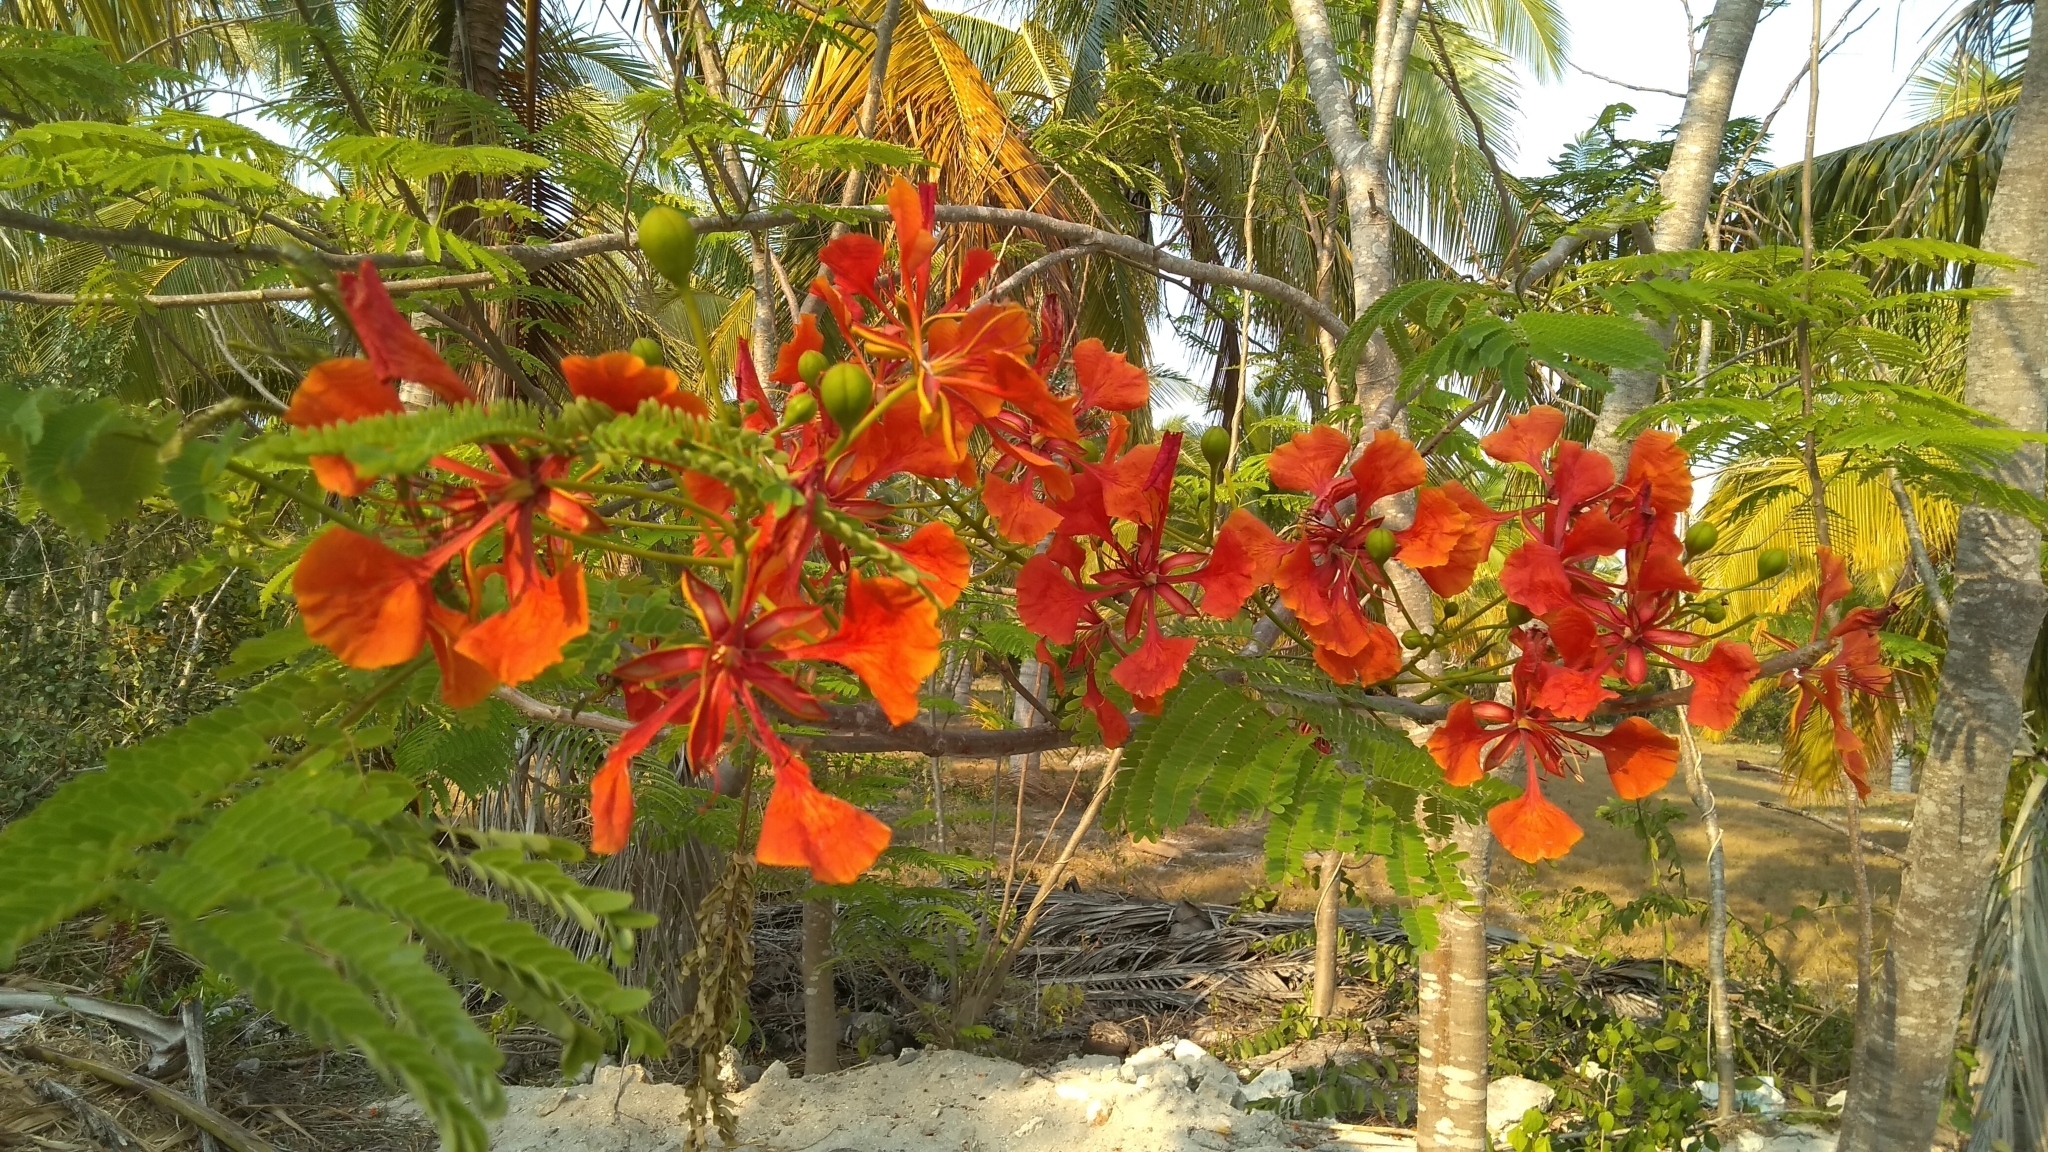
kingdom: Plantae
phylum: Tracheophyta
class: Magnoliopsida
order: Fabales
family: Fabaceae
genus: Delonix
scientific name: Delonix regia
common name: Royal poinciana
